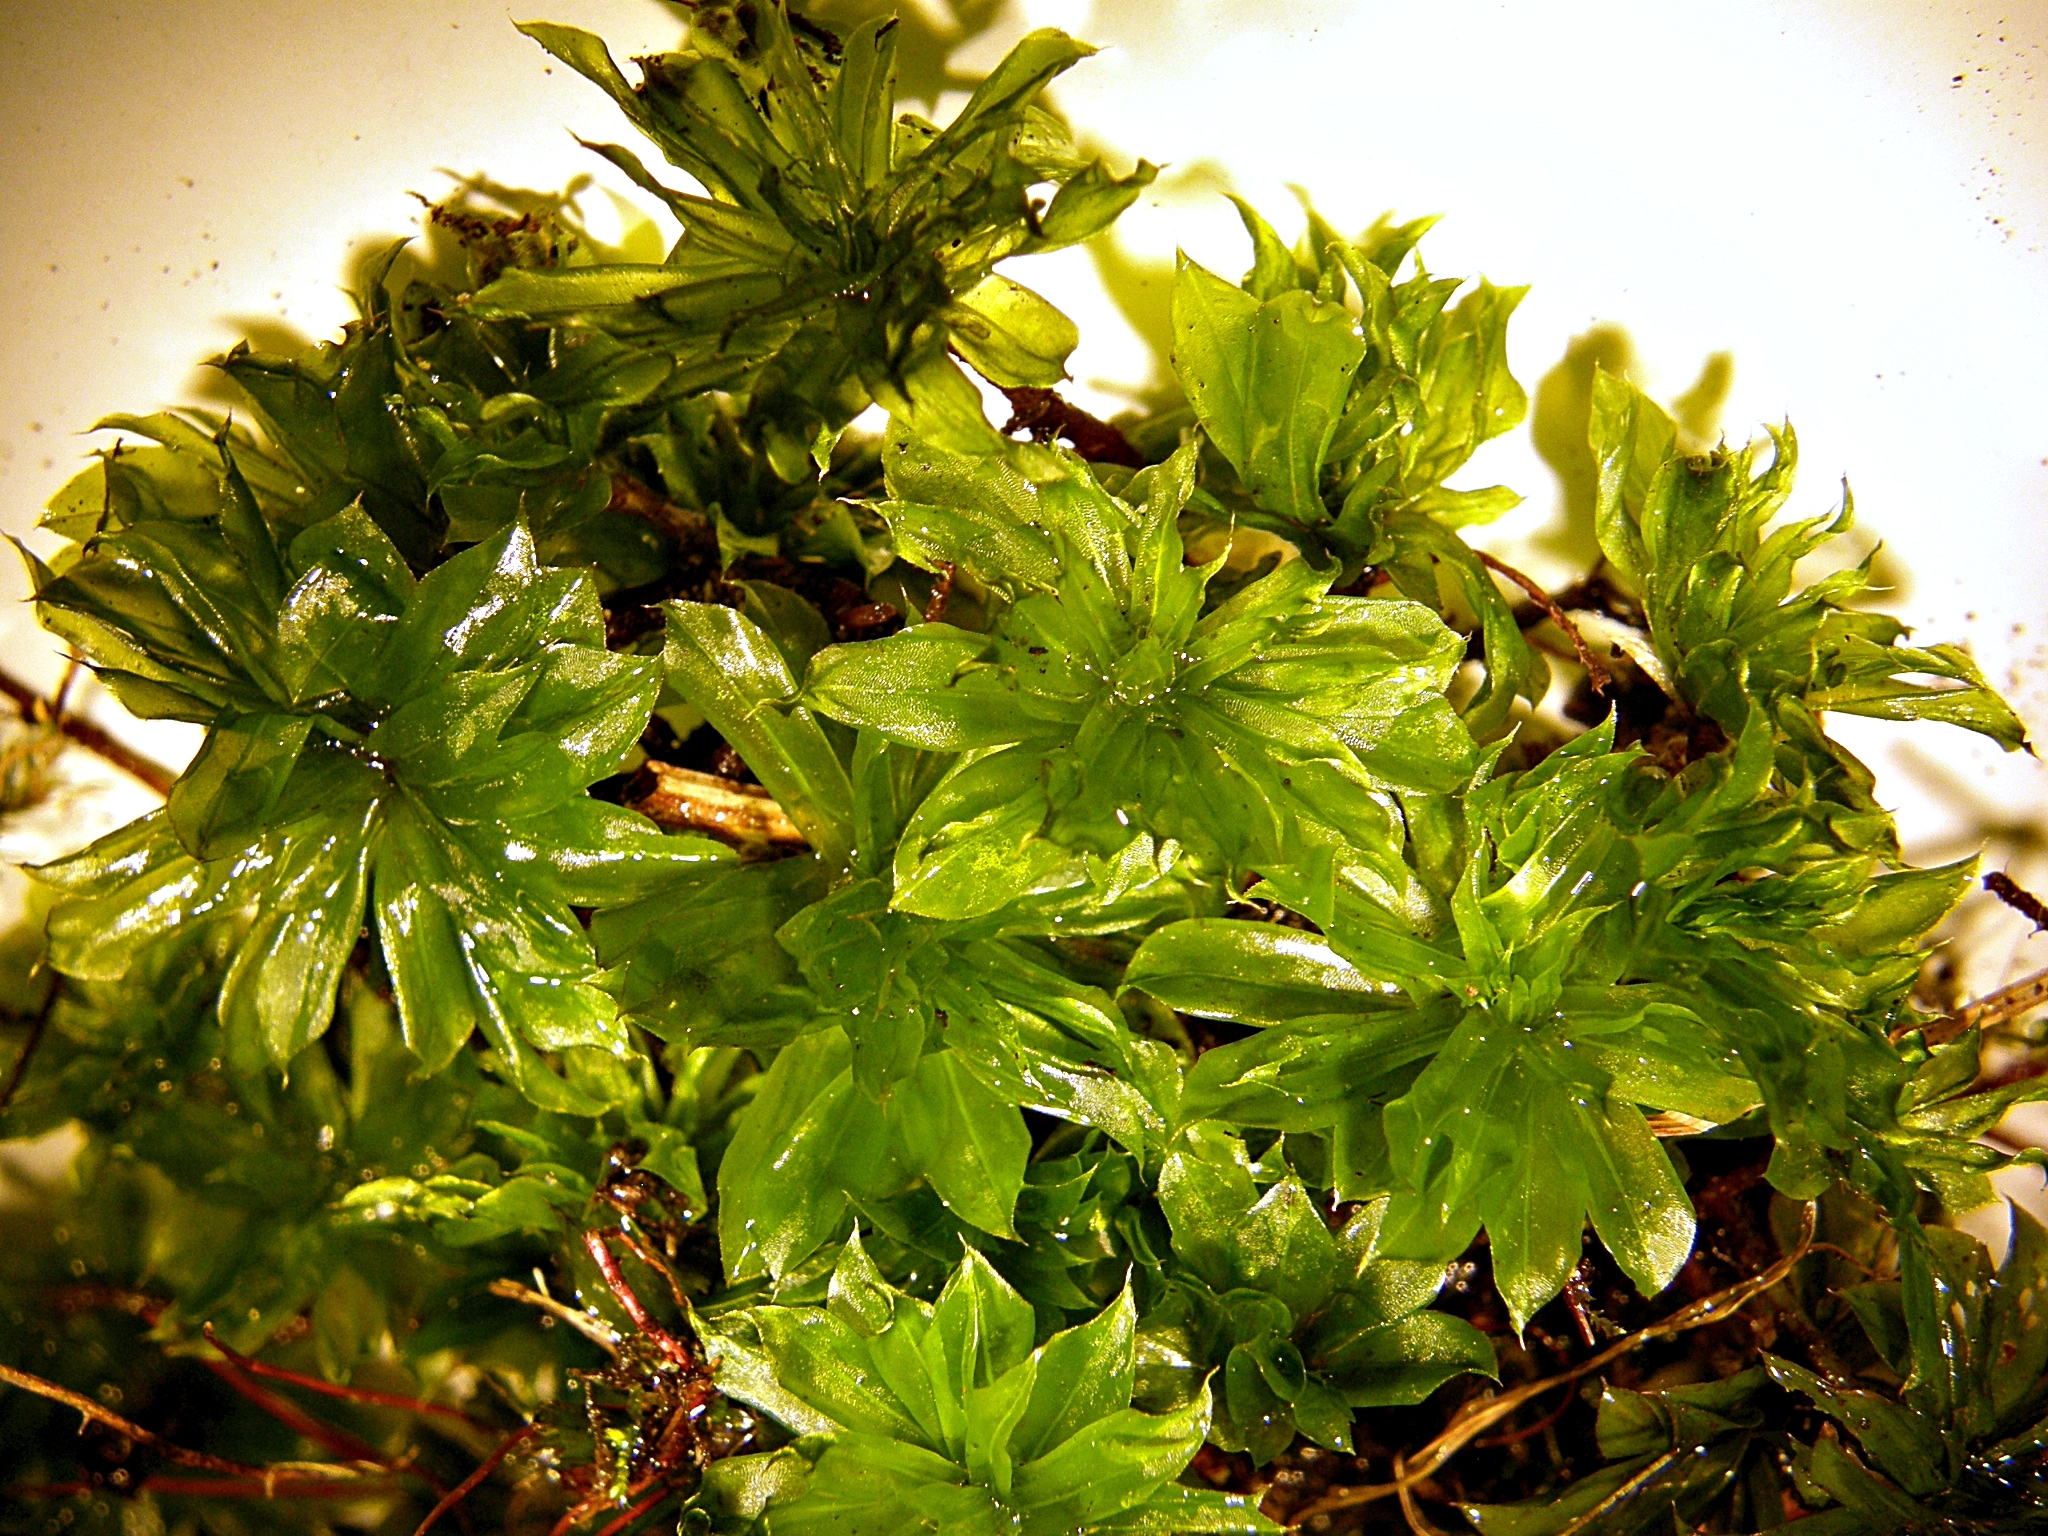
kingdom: Plantae
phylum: Bryophyta
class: Bryopsida
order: Bryales
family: Bryaceae
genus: Rhodobryum
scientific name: Rhodobryum ontariense
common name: Ontario rhodobryum moss
